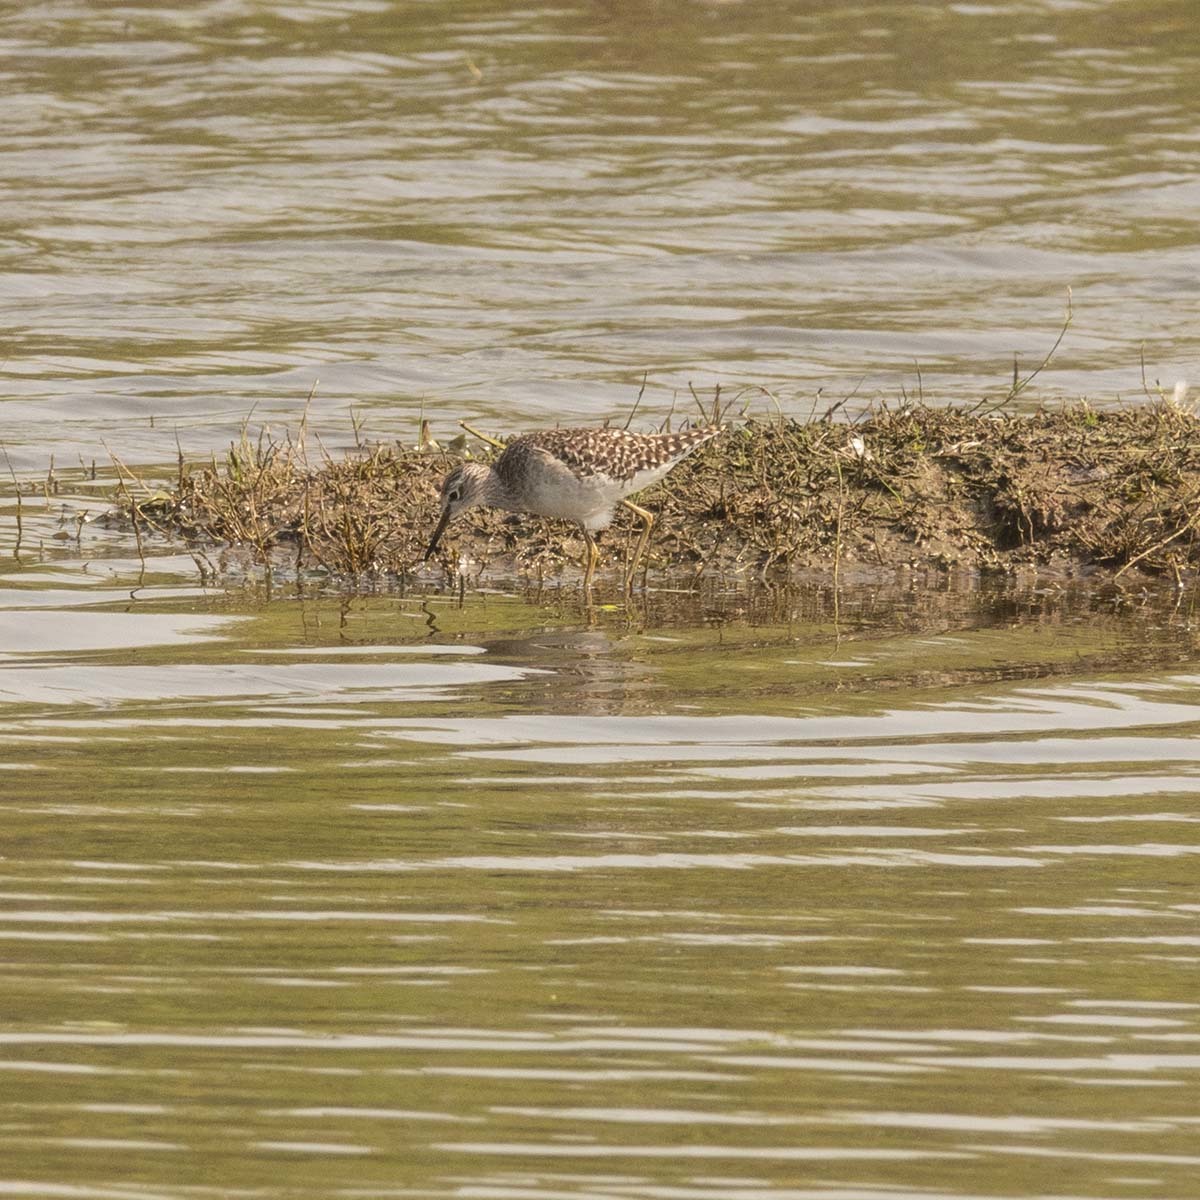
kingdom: Animalia
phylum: Chordata
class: Aves
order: Charadriiformes
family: Scolopacidae
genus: Tringa
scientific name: Tringa glareola
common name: Wood sandpiper
